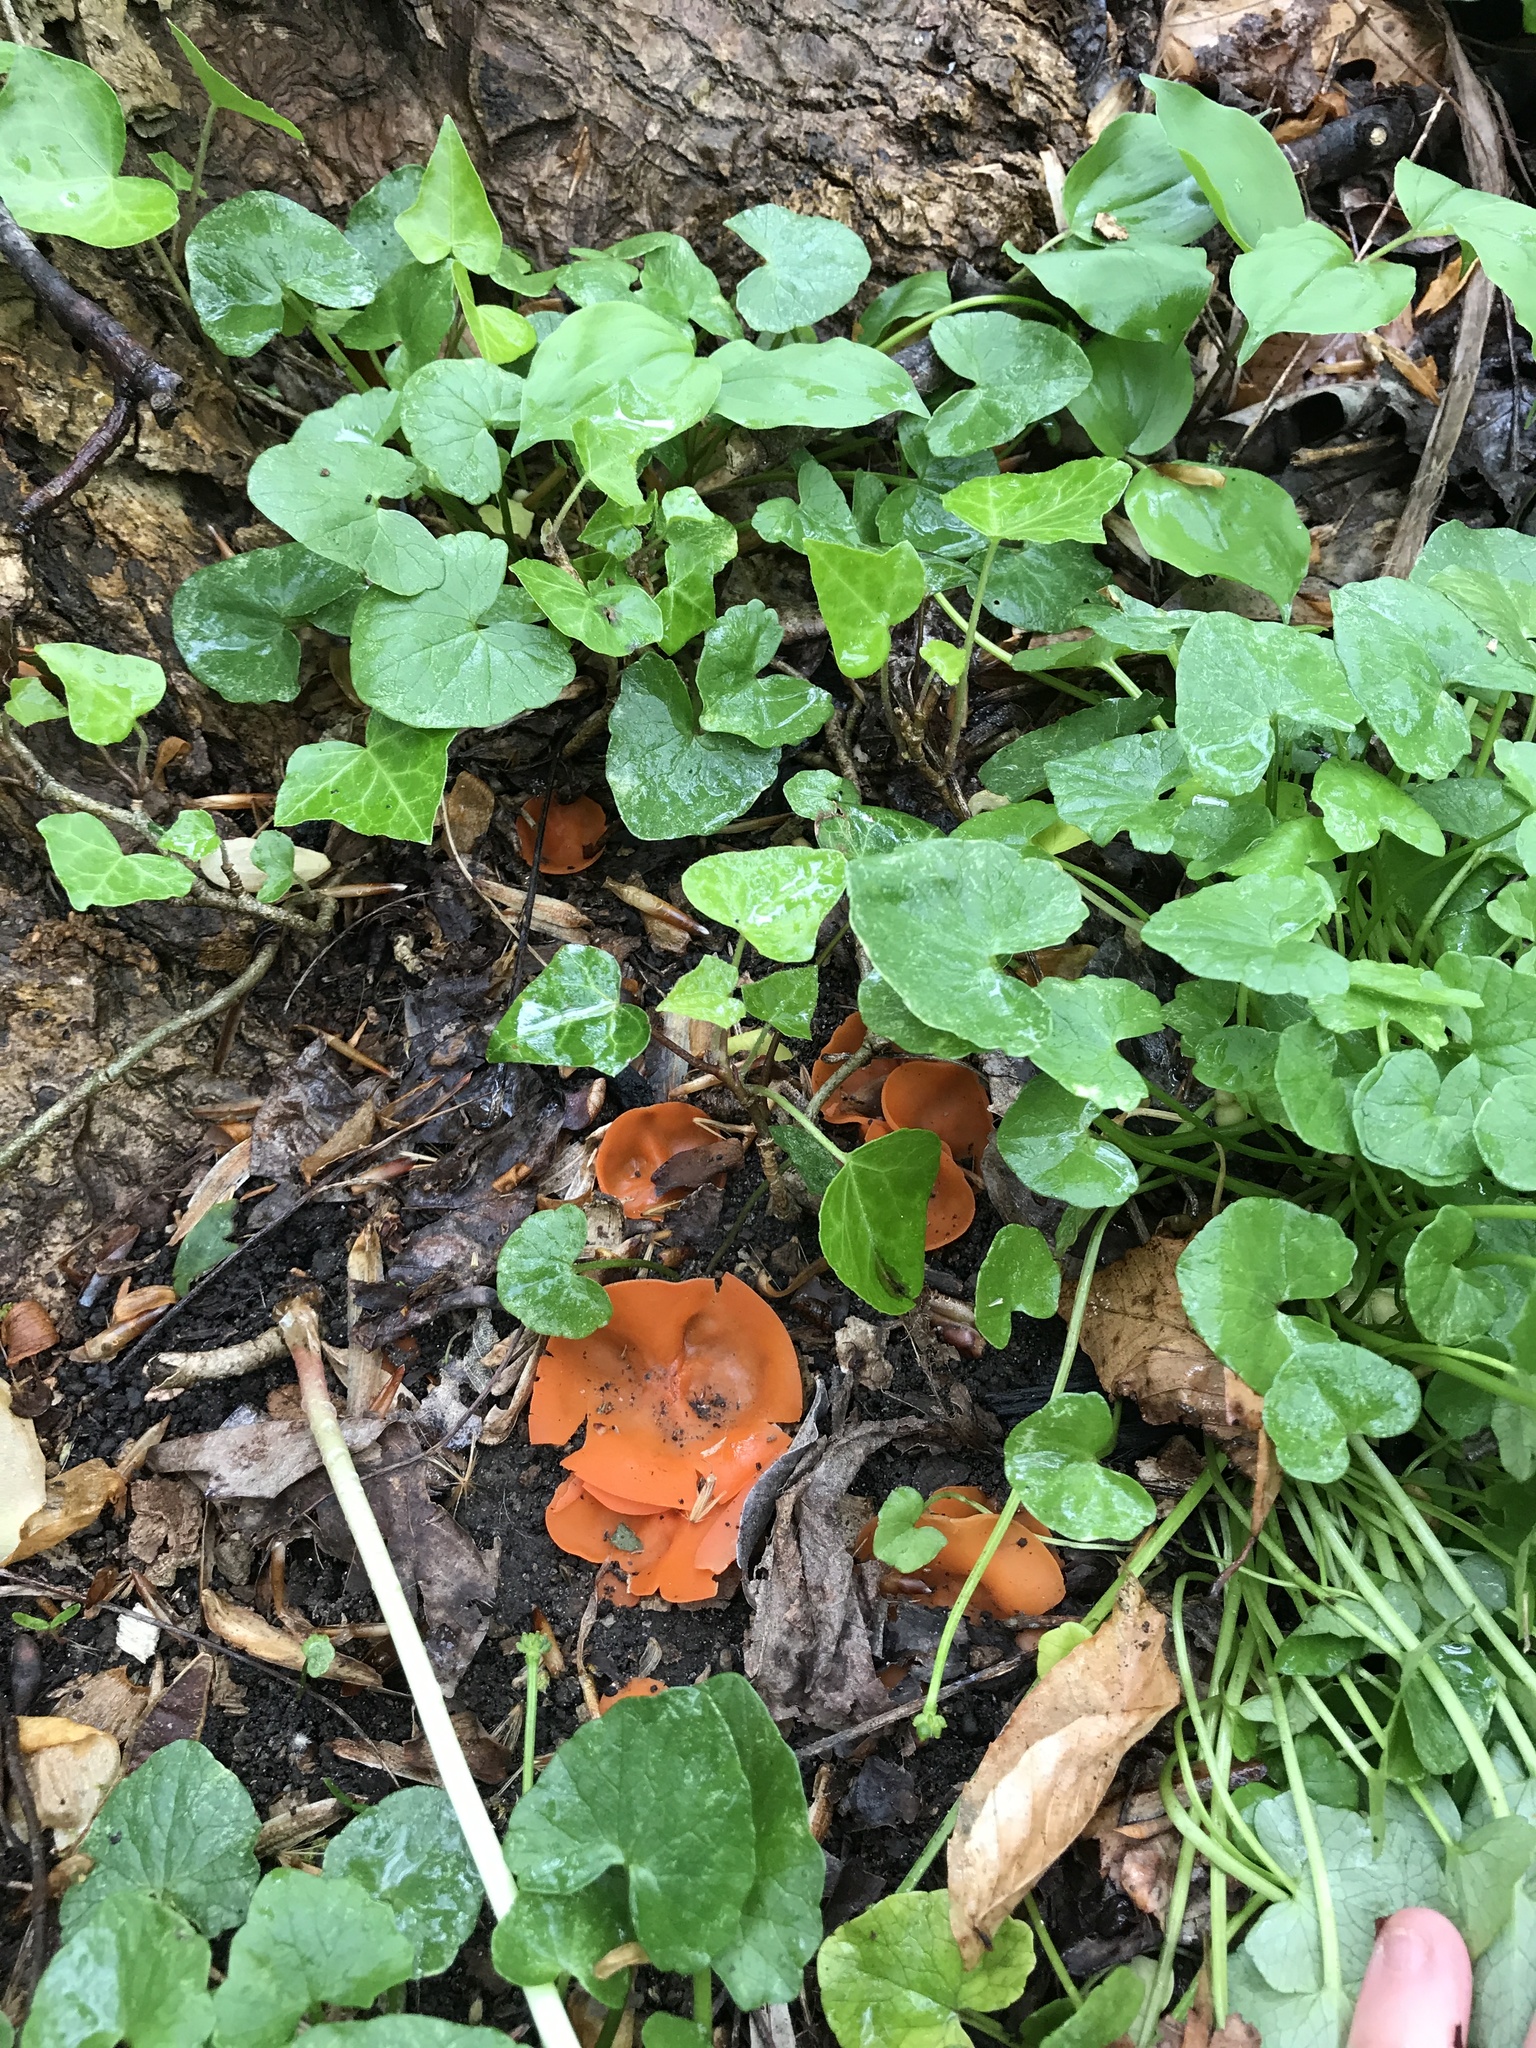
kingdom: Fungi
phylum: Ascomycota
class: Pezizomycetes
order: Pezizales
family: Pyronemataceae
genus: Aleuria
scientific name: Aleuria aurantia
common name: Orange peel fungus
